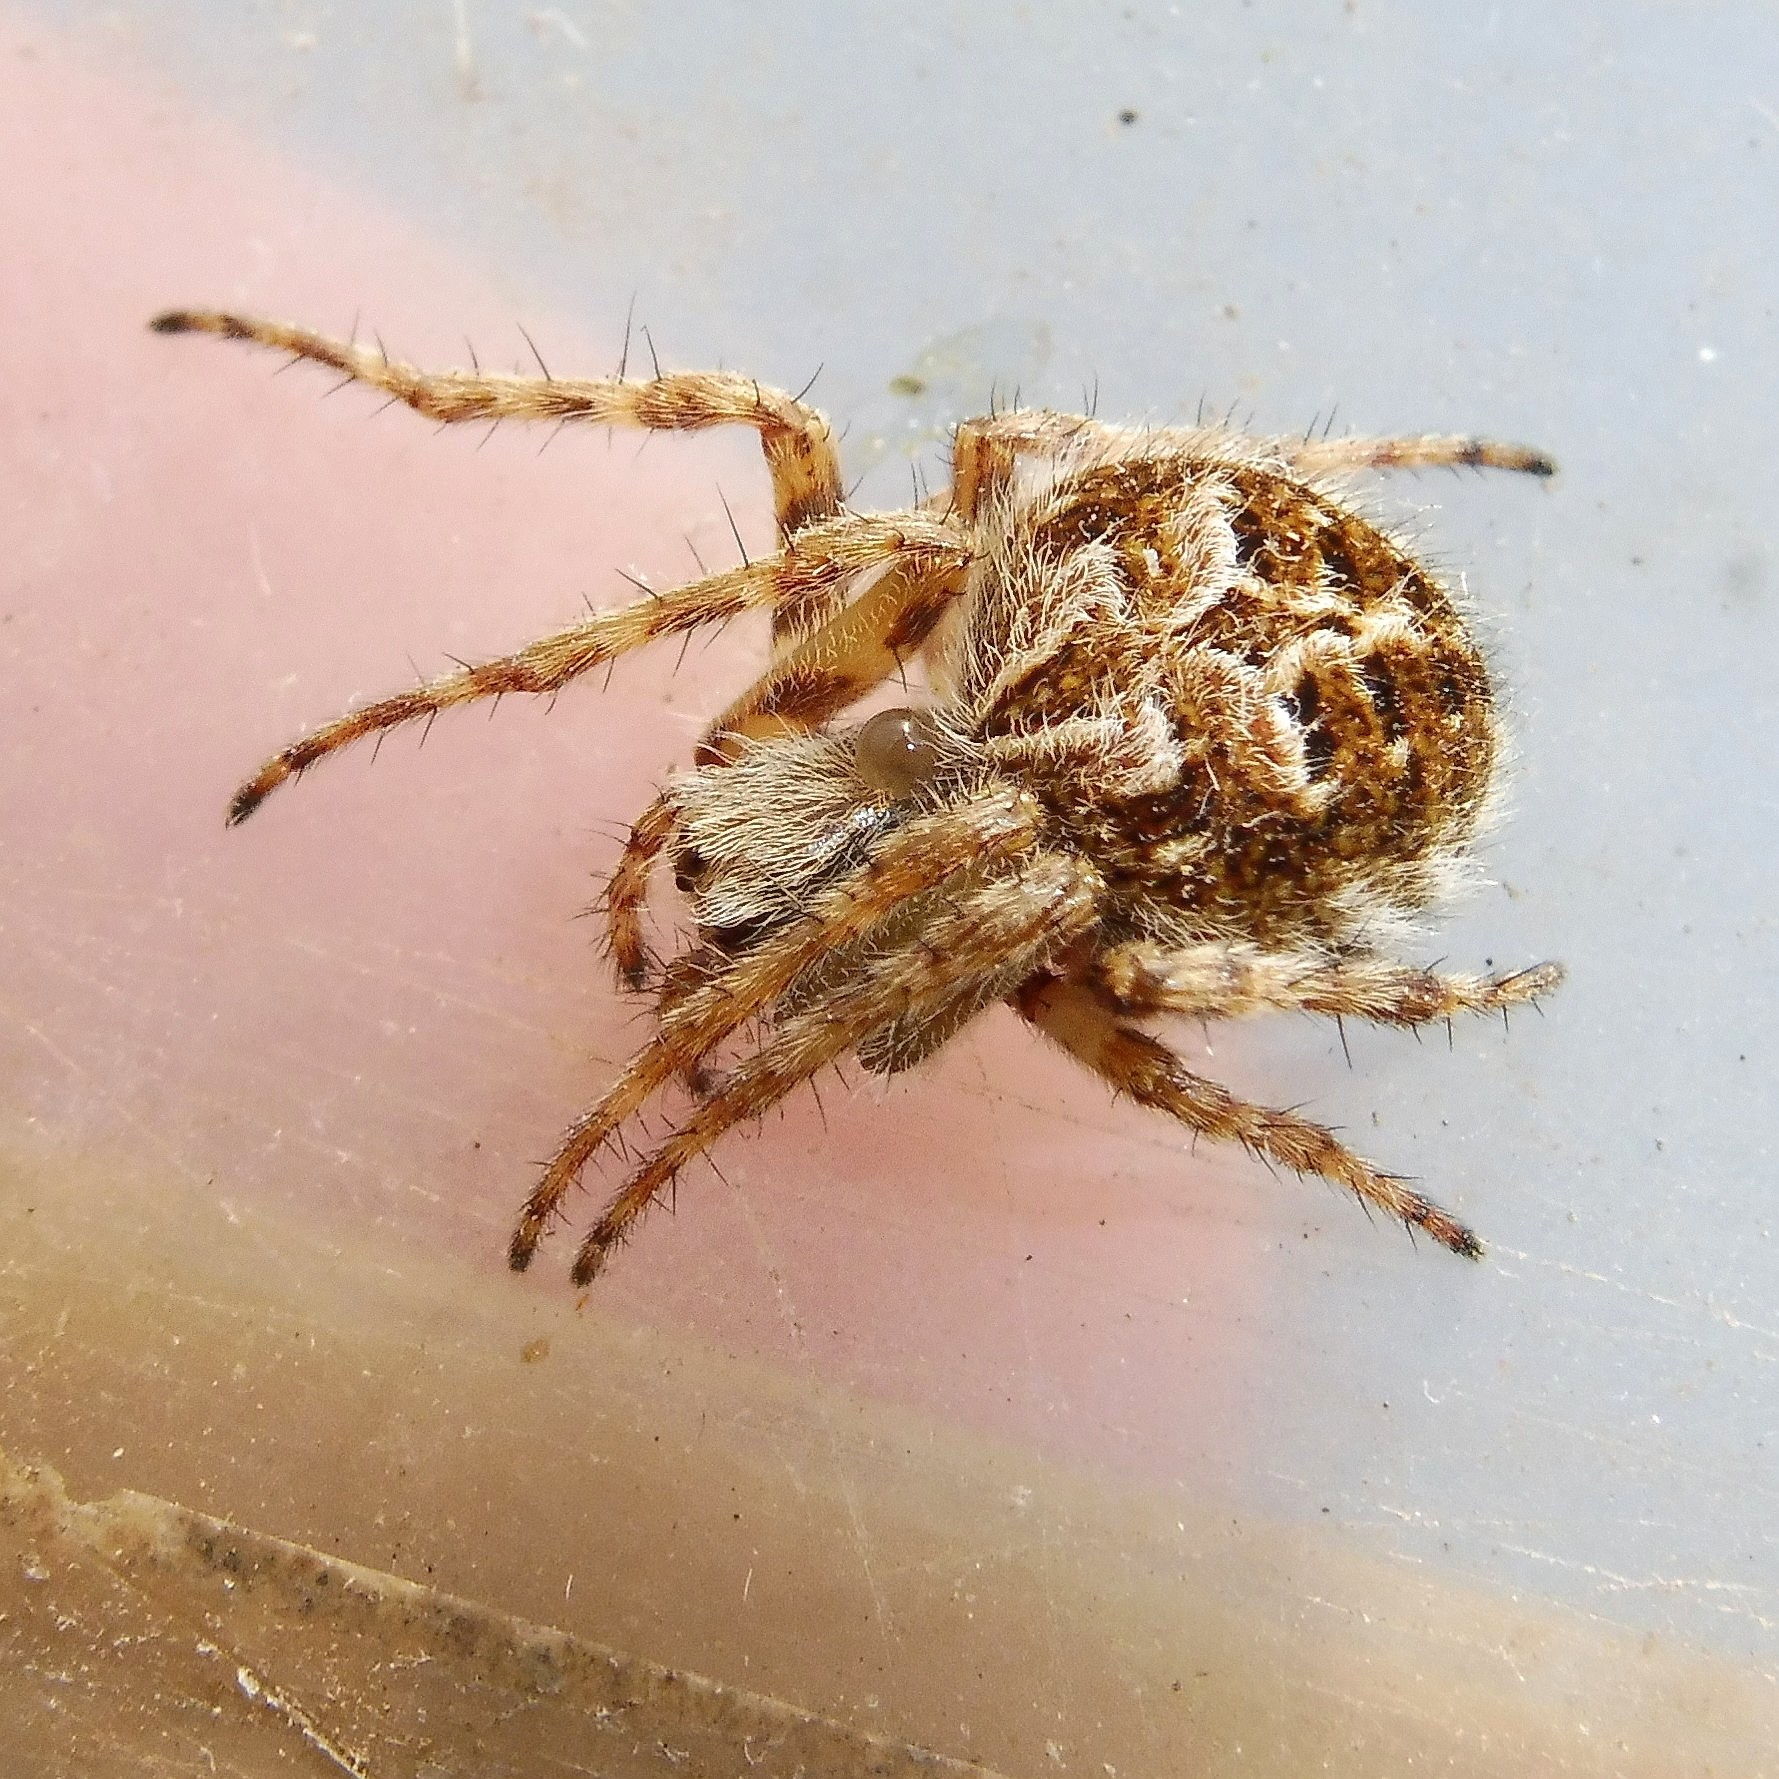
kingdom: Animalia
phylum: Arthropoda
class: Arachnida
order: Araneae
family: Araneidae
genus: Agalenatea
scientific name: Agalenatea redii
